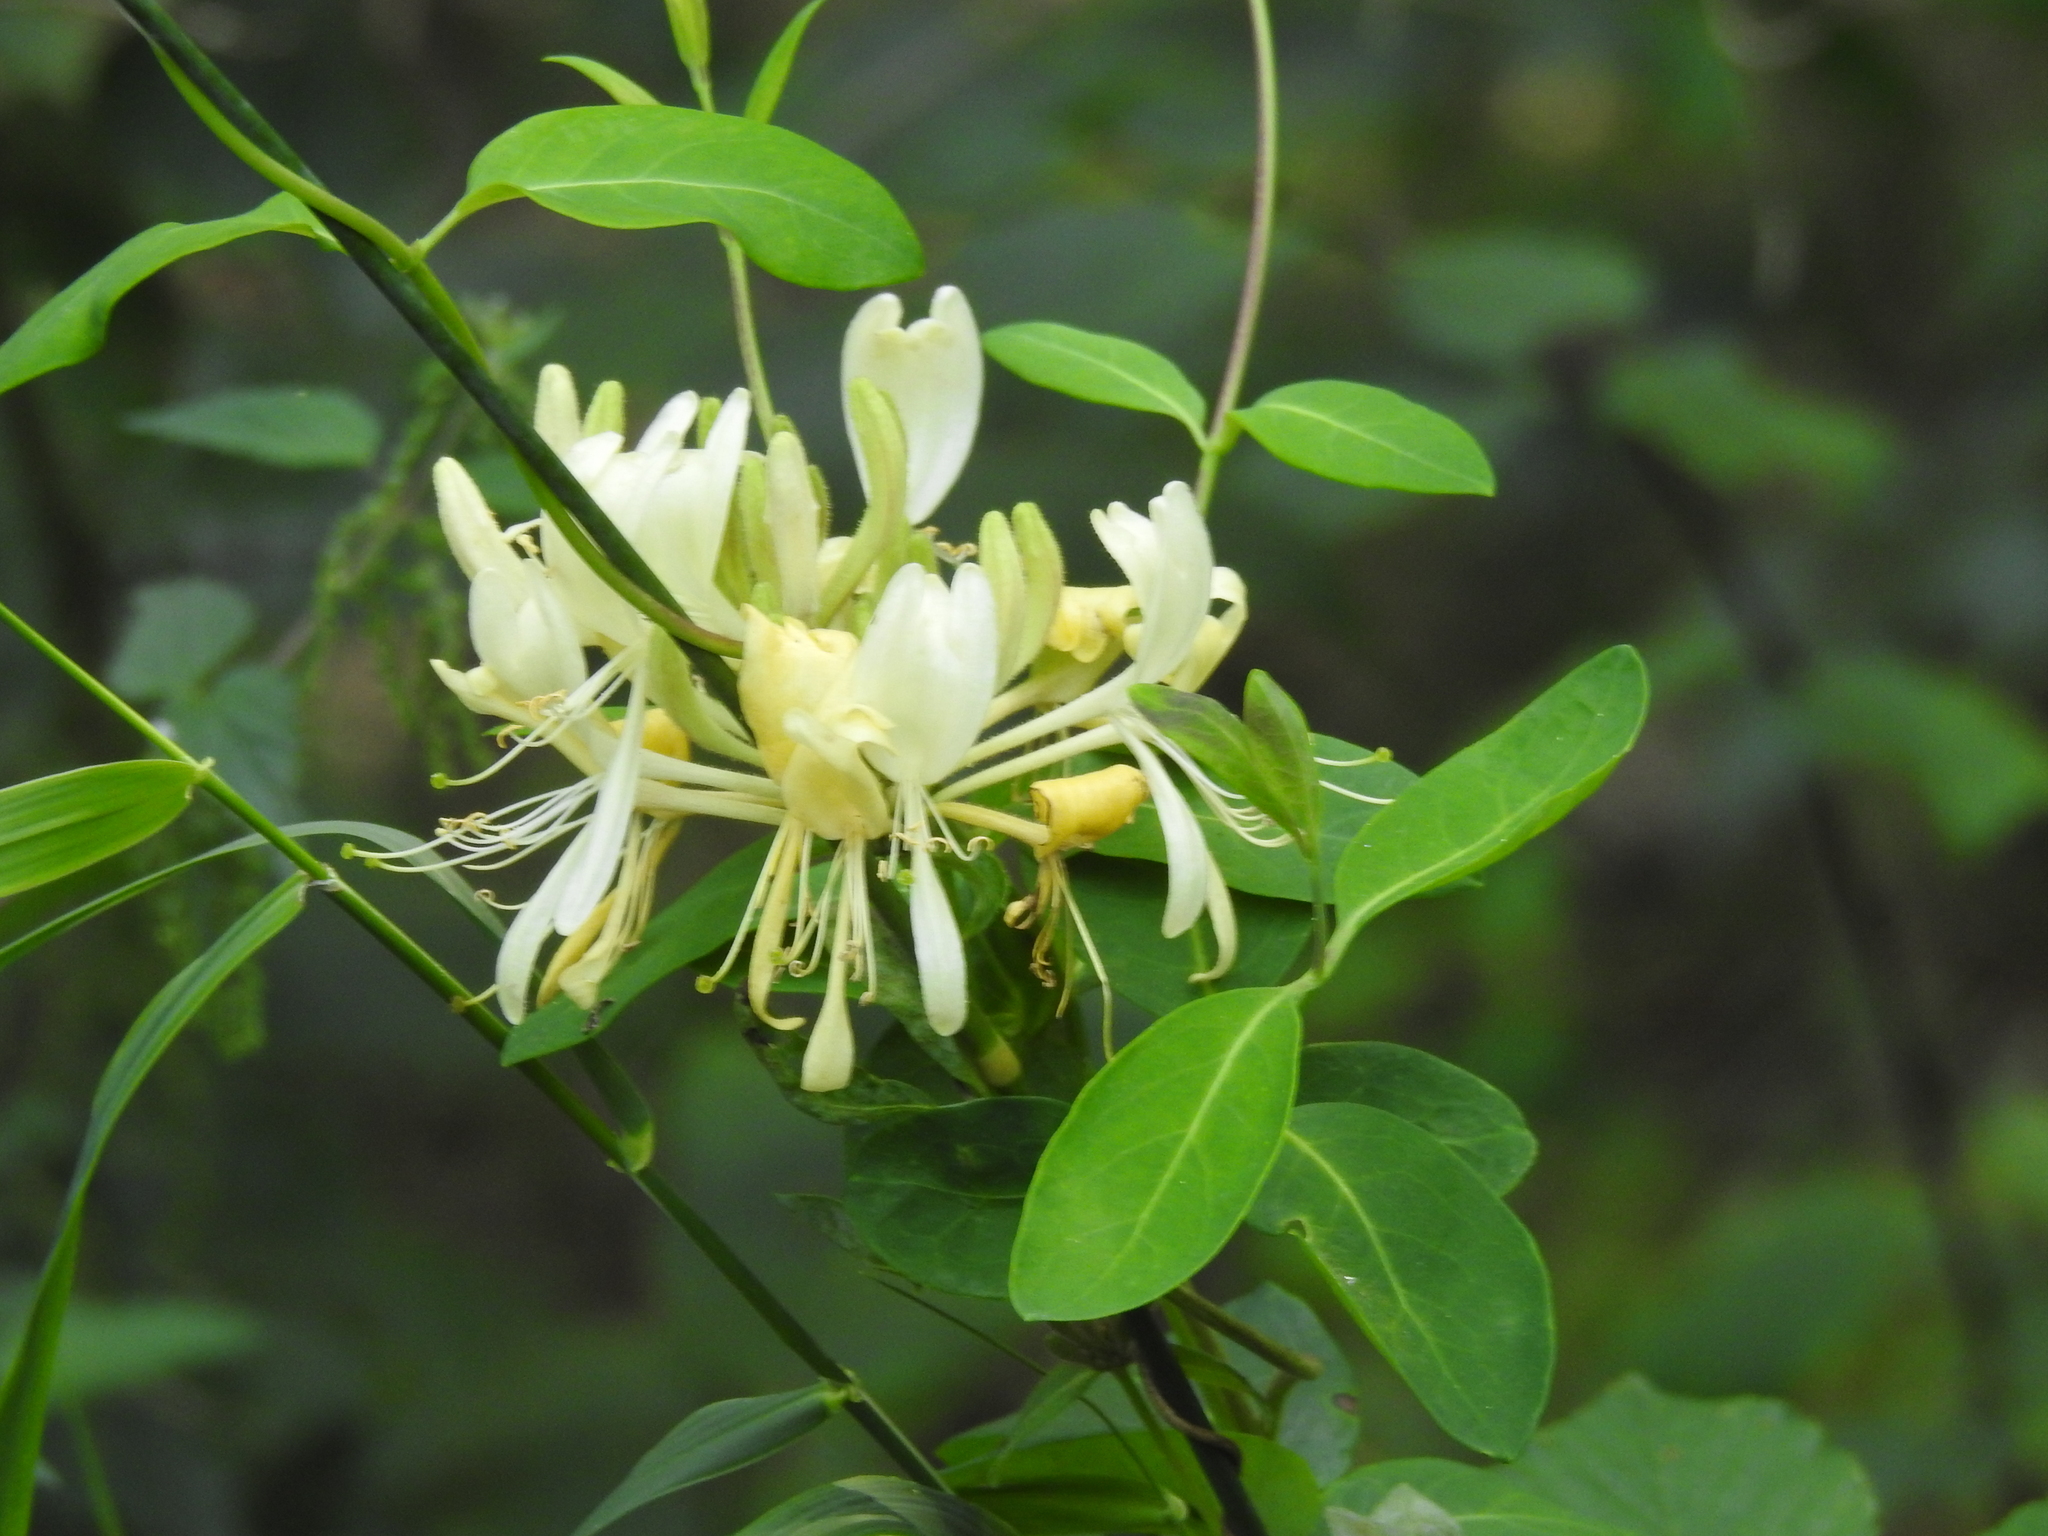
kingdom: Plantae
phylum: Tracheophyta
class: Magnoliopsida
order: Dipsacales
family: Caprifoliaceae
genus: Lonicera
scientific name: Lonicera periclymenum
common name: European honeysuckle
